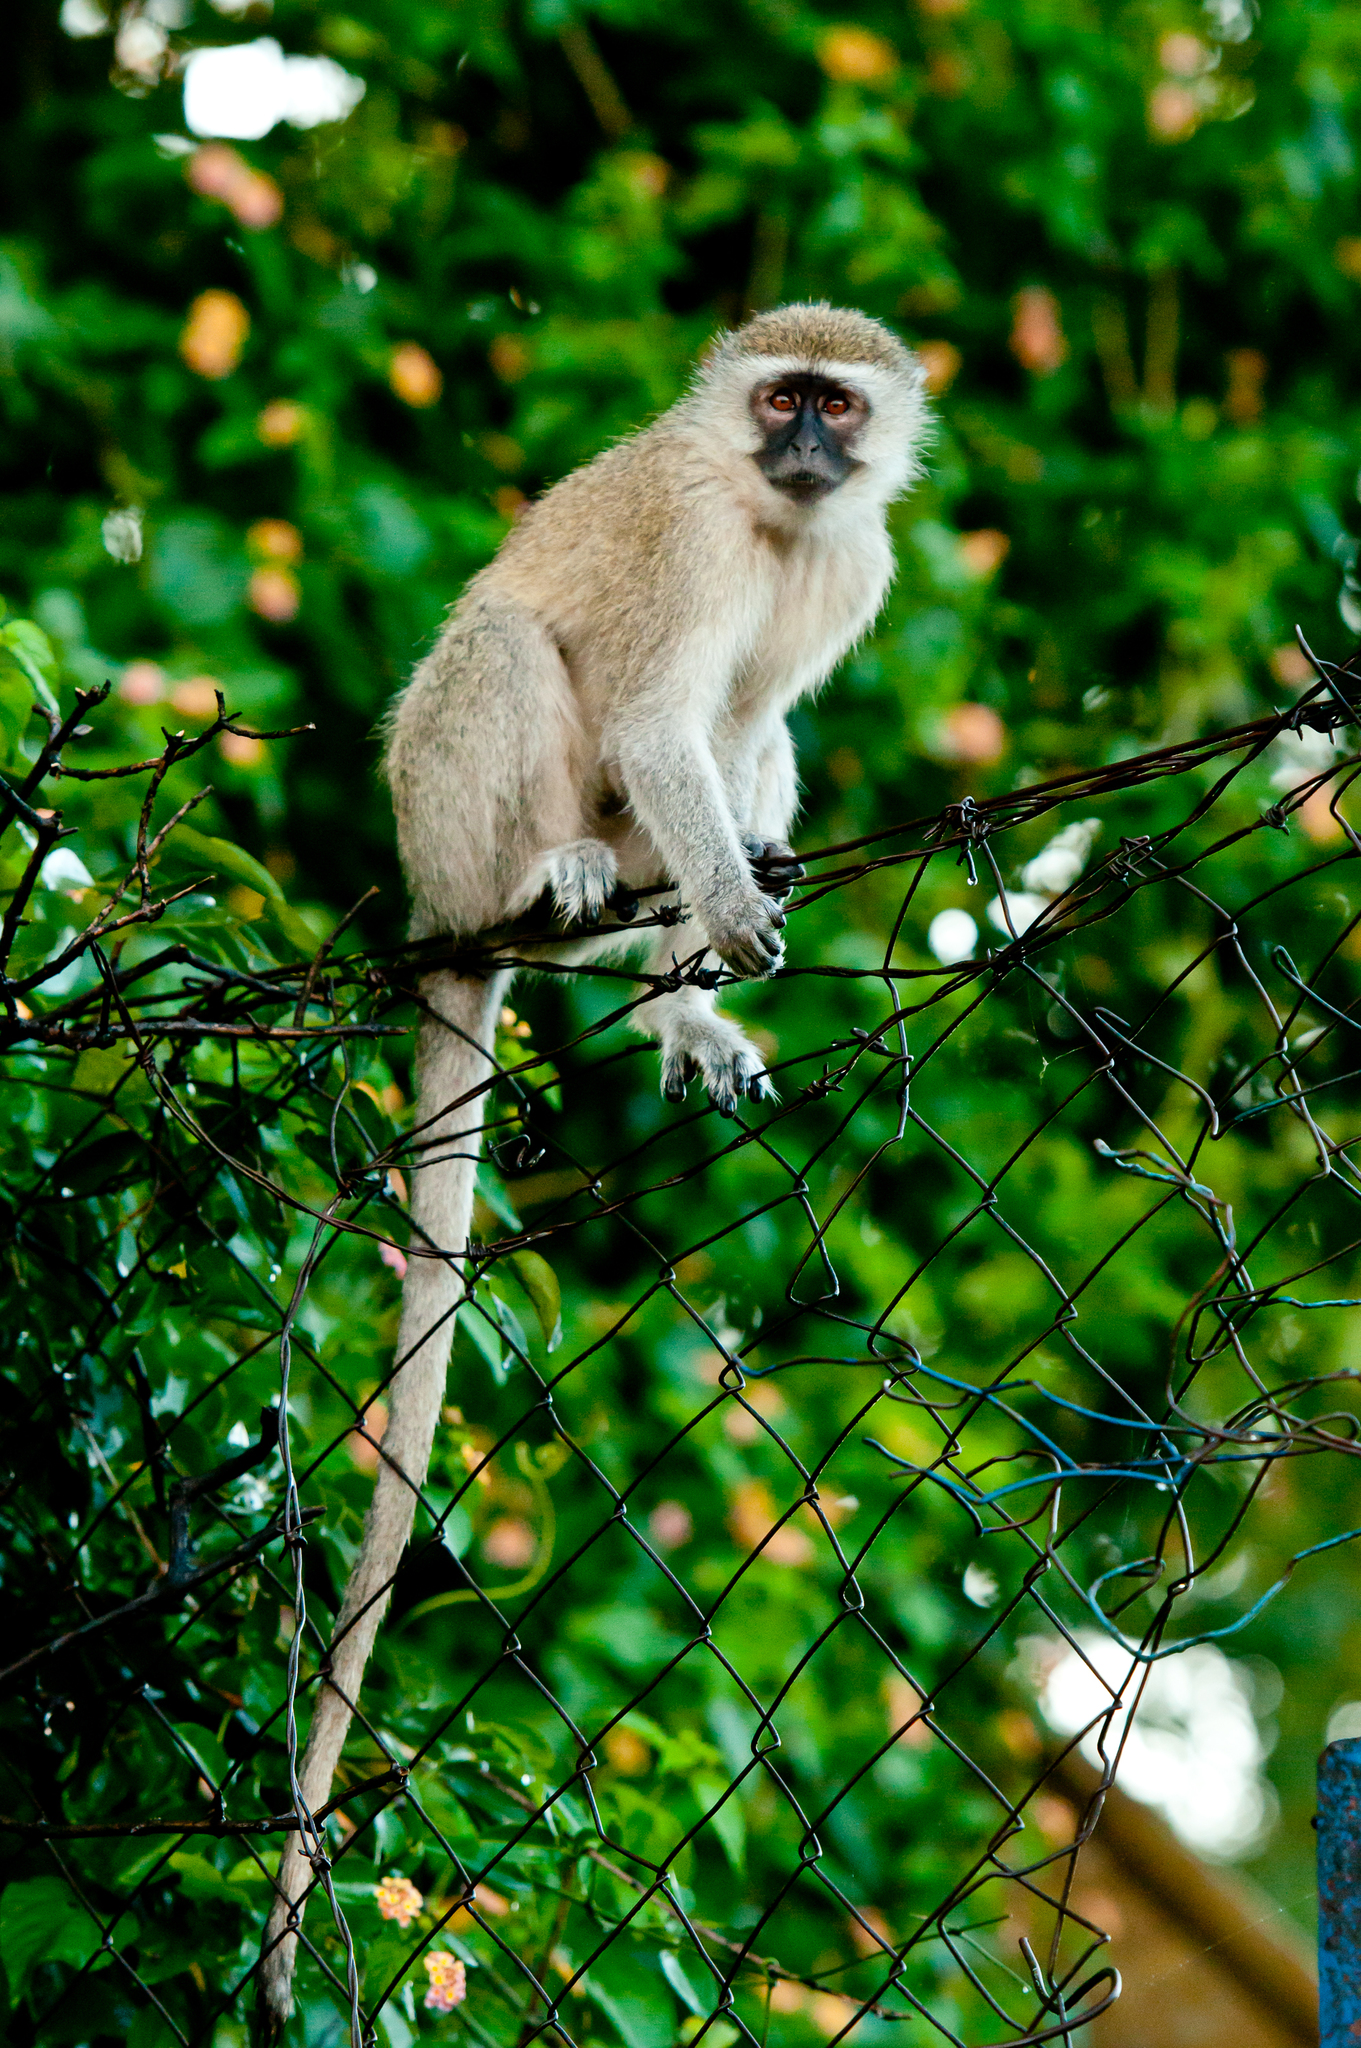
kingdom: Animalia
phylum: Chordata
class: Mammalia
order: Primates
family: Cercopithecidae
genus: Chlorocebus
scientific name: Chlorocebus pygerythrus
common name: Vervet monkey
